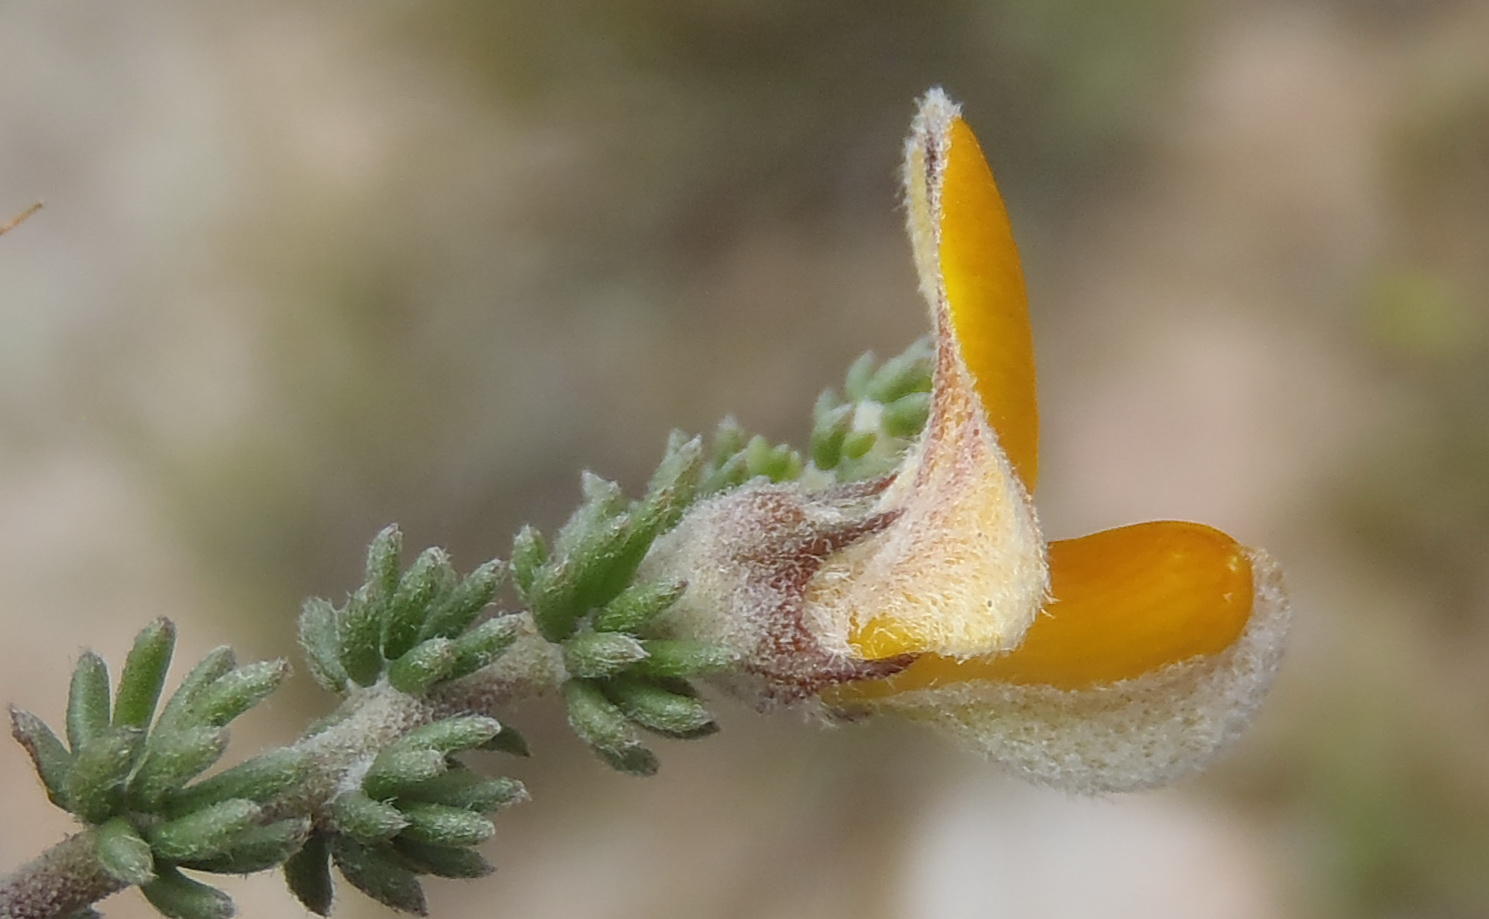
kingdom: Plantae
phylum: Tracheophyta
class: Magnoliopsida
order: Fabales
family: Fabaceae
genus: Aspalathus
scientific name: Aspalathus chortophila
